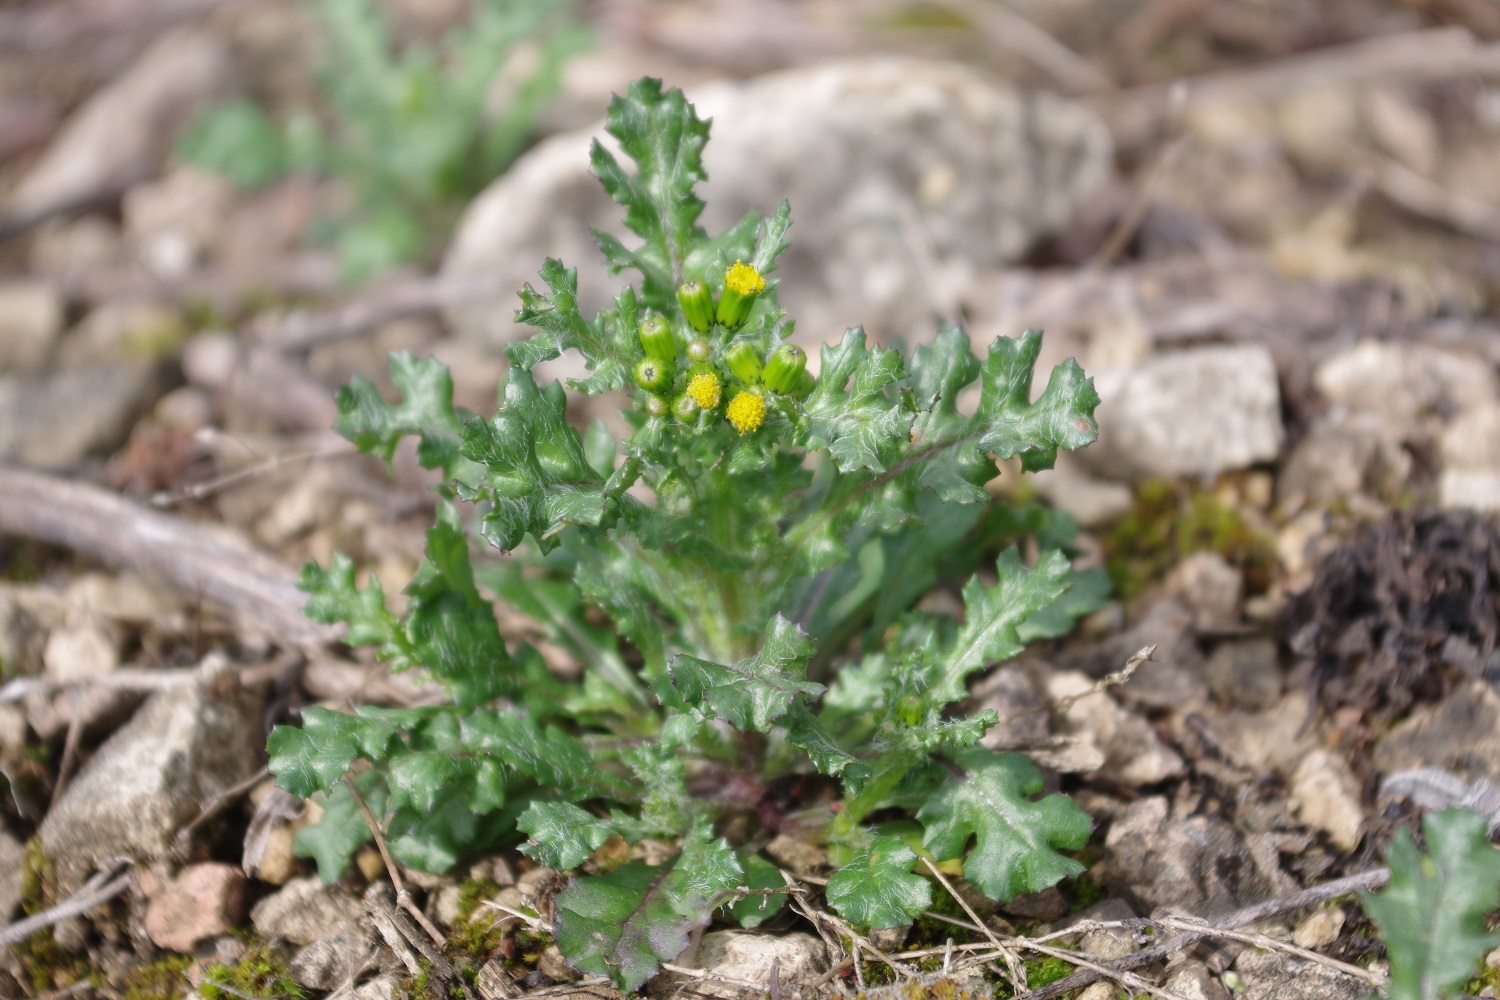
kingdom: Plantae
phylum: Tracheophyta
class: Magnoliopsida
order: Asterales
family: Asteraceae
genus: Senecio
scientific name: Senecio vulgaris
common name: Old-man-in-the-spring
